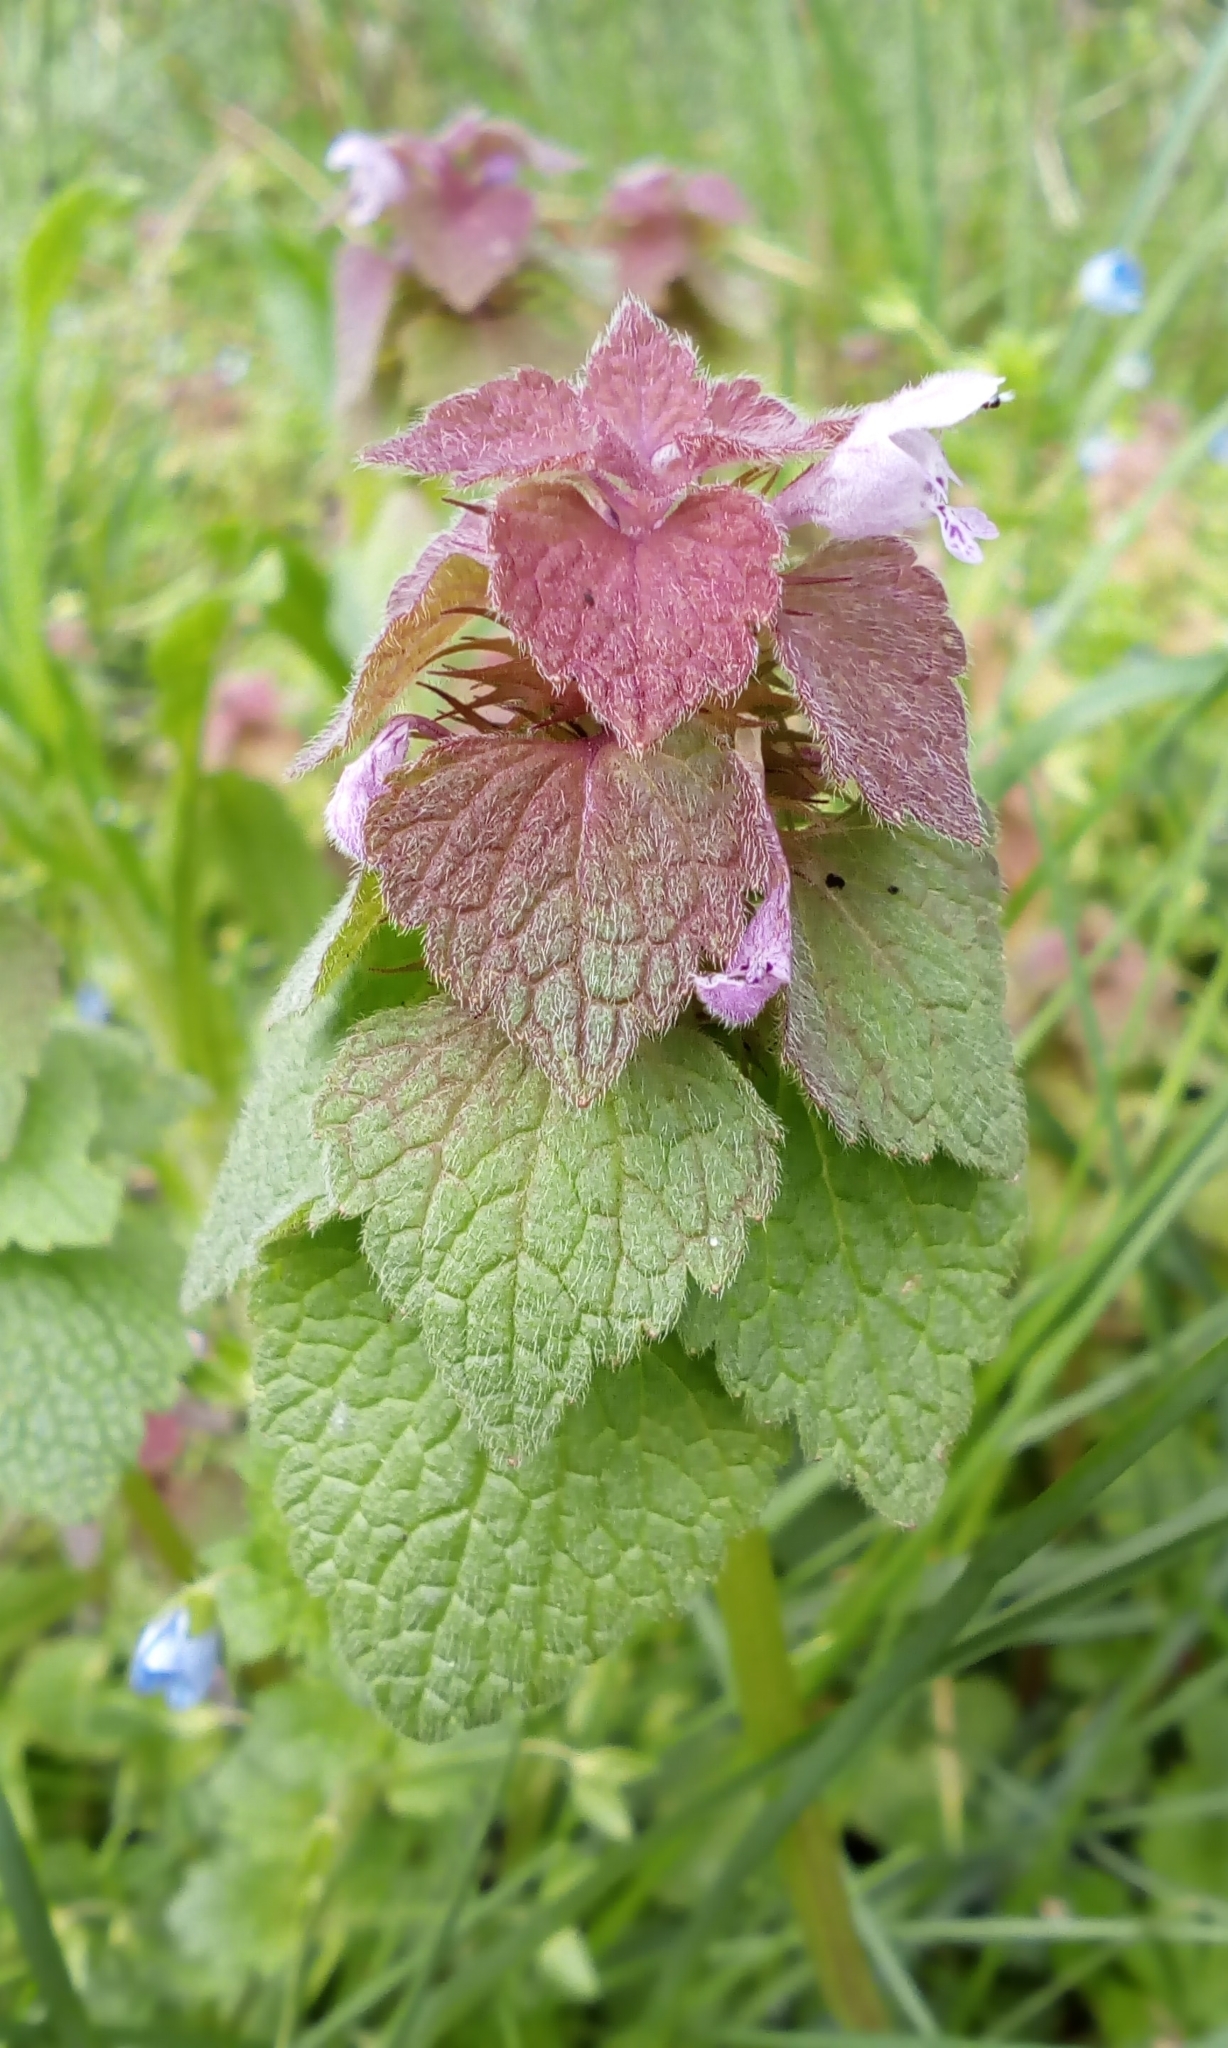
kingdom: Plantae
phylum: Tracheophyta
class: Magnoliopsida
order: Lamiales
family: Lamiaceae
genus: Lamium
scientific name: Lamium purpureum
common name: Red dead-nettle
